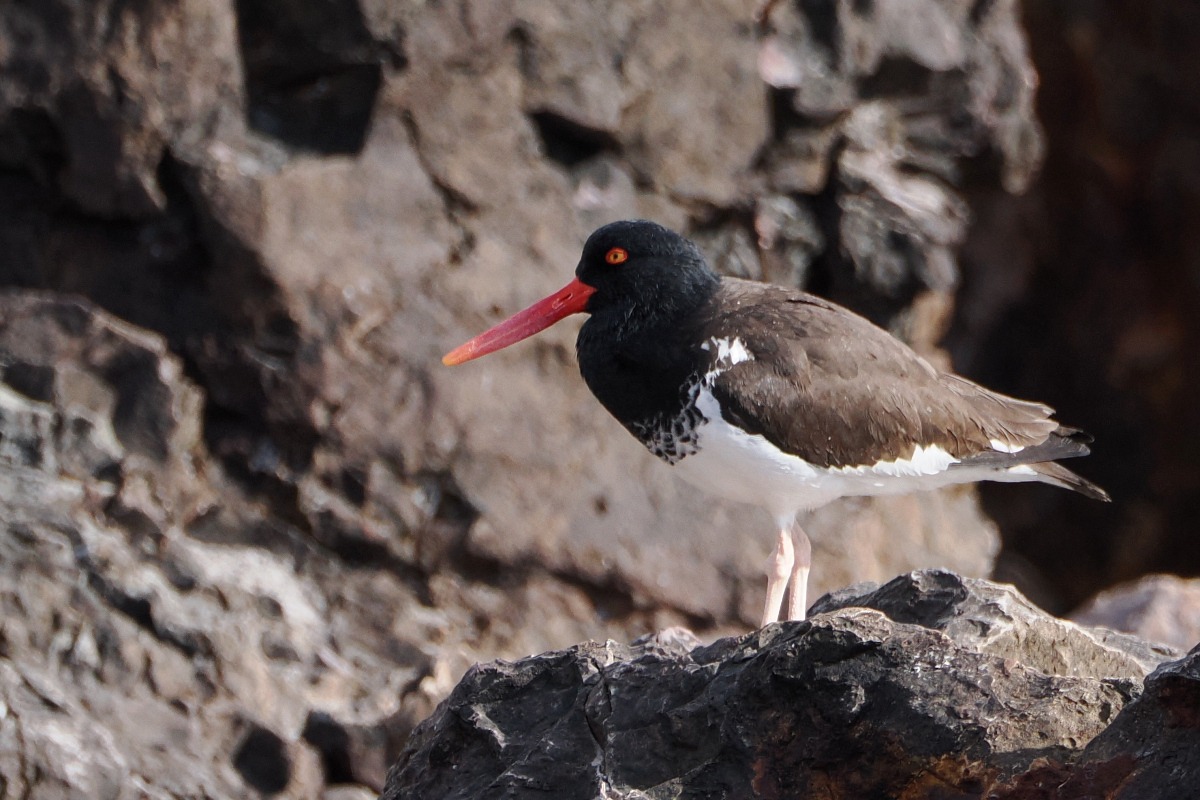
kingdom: Animalia
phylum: Chordata
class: Aves
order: Charadriiformes
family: Haematopodidae
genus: Haematopus
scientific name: Haematopus palliatus
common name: American oystercatcher
